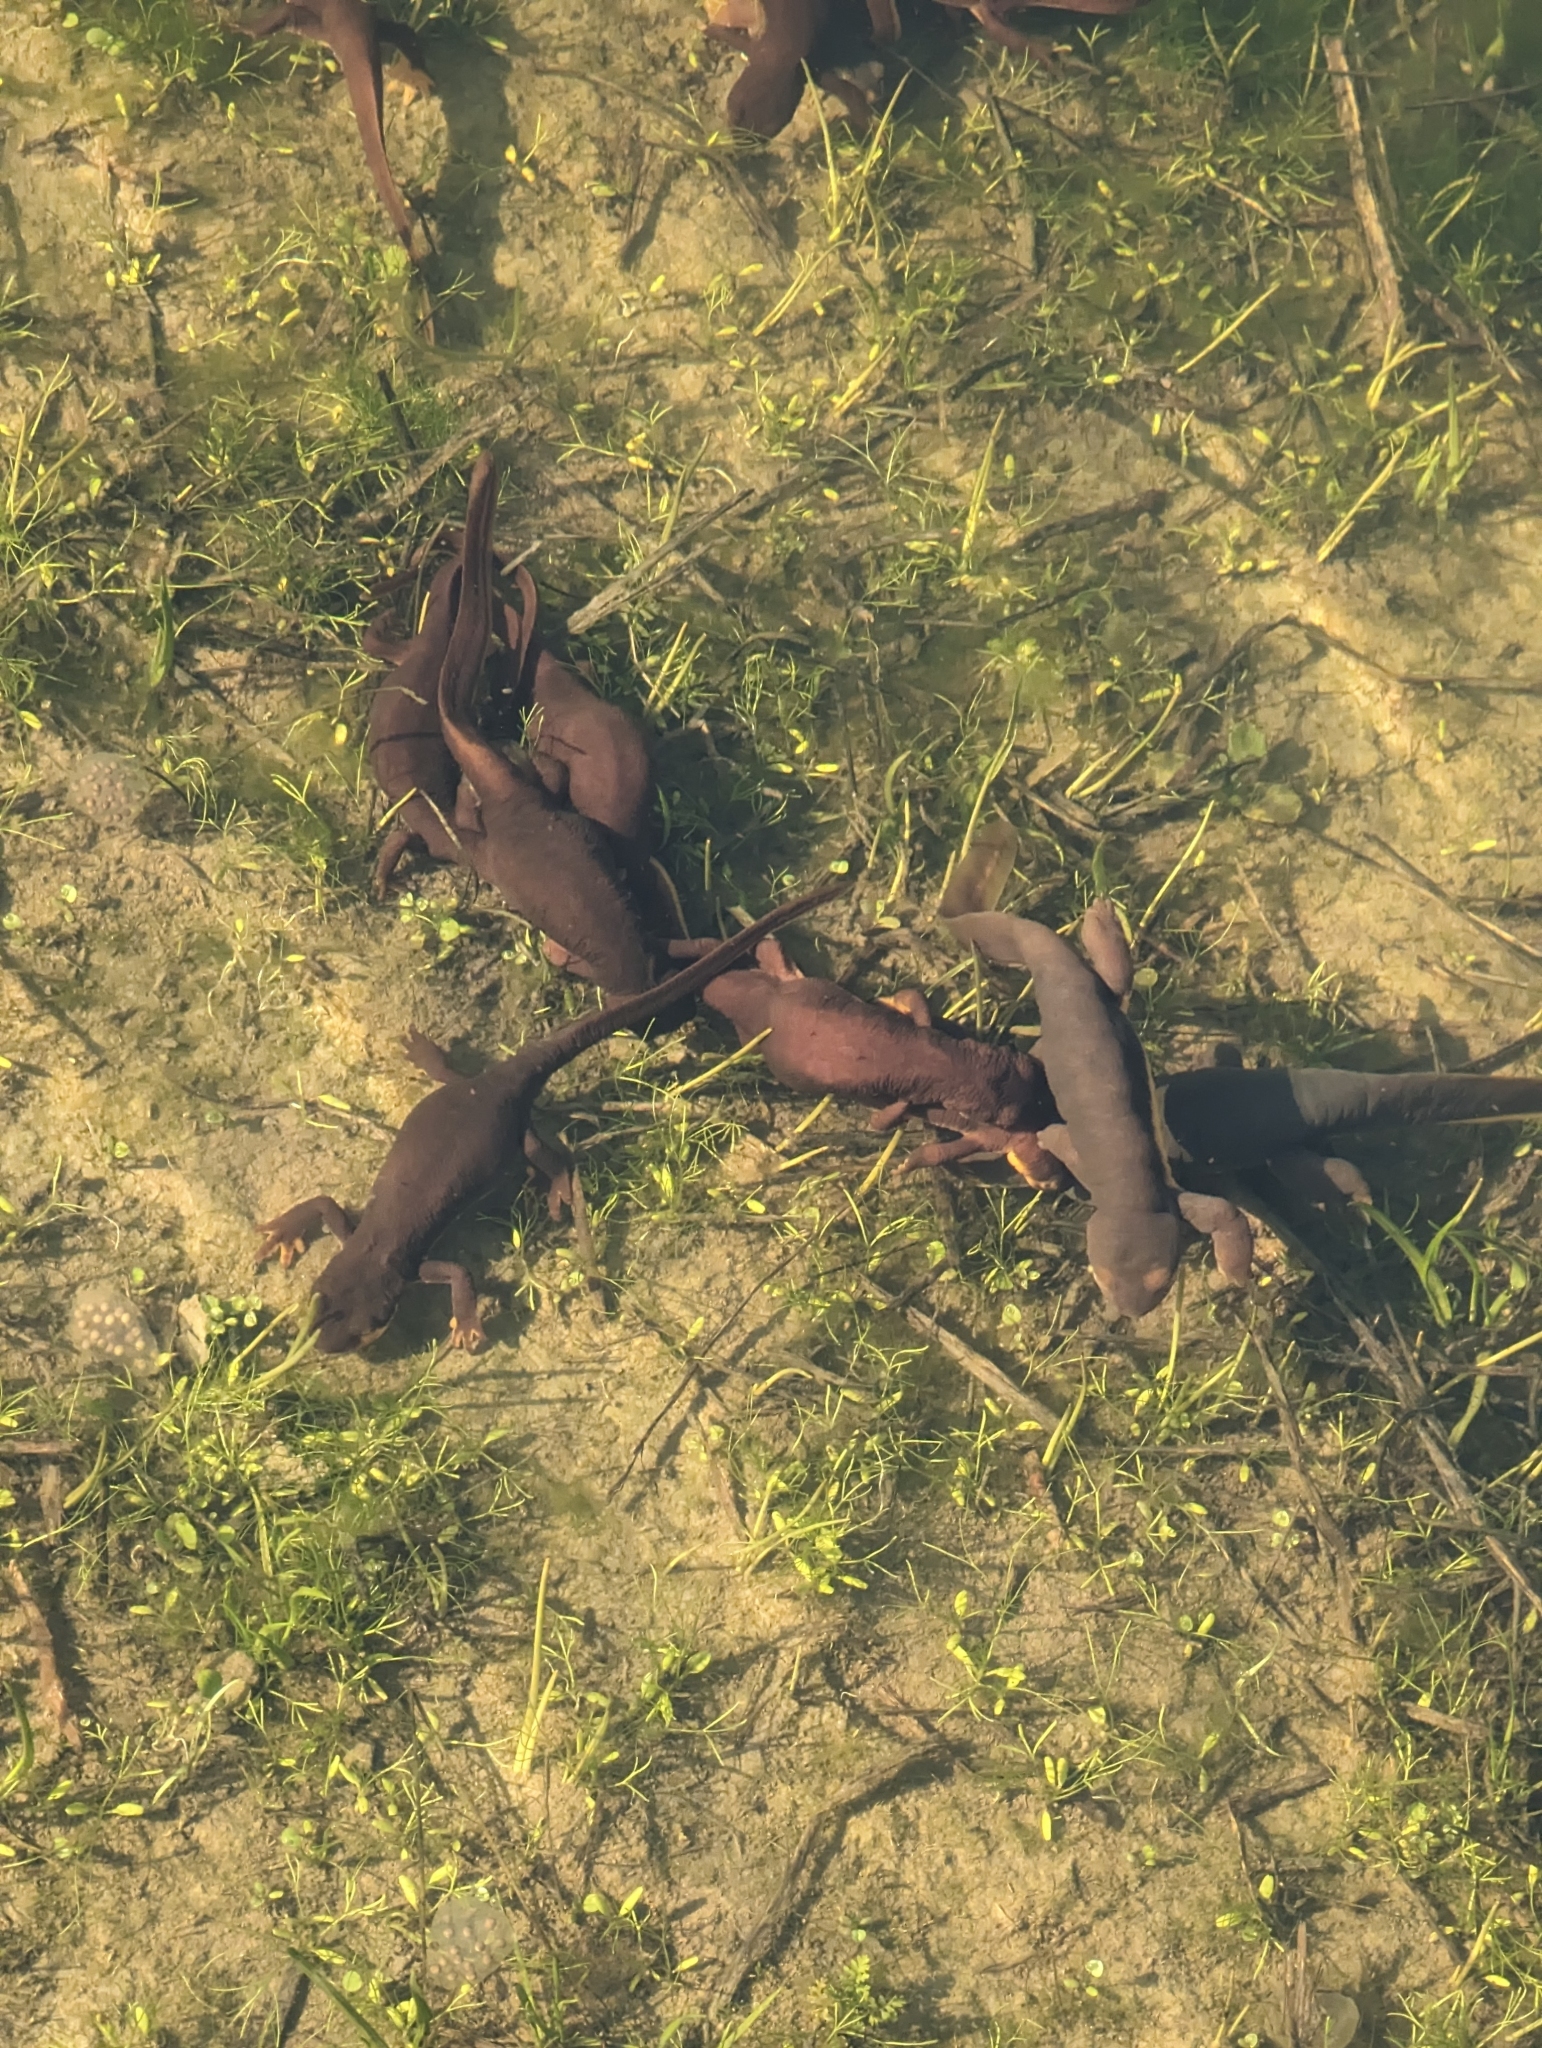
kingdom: Animalia
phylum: Chordata
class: Amphibia
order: Caudata
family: Salamandridae
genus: Taricha
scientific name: Taricha torosa
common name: California newt
